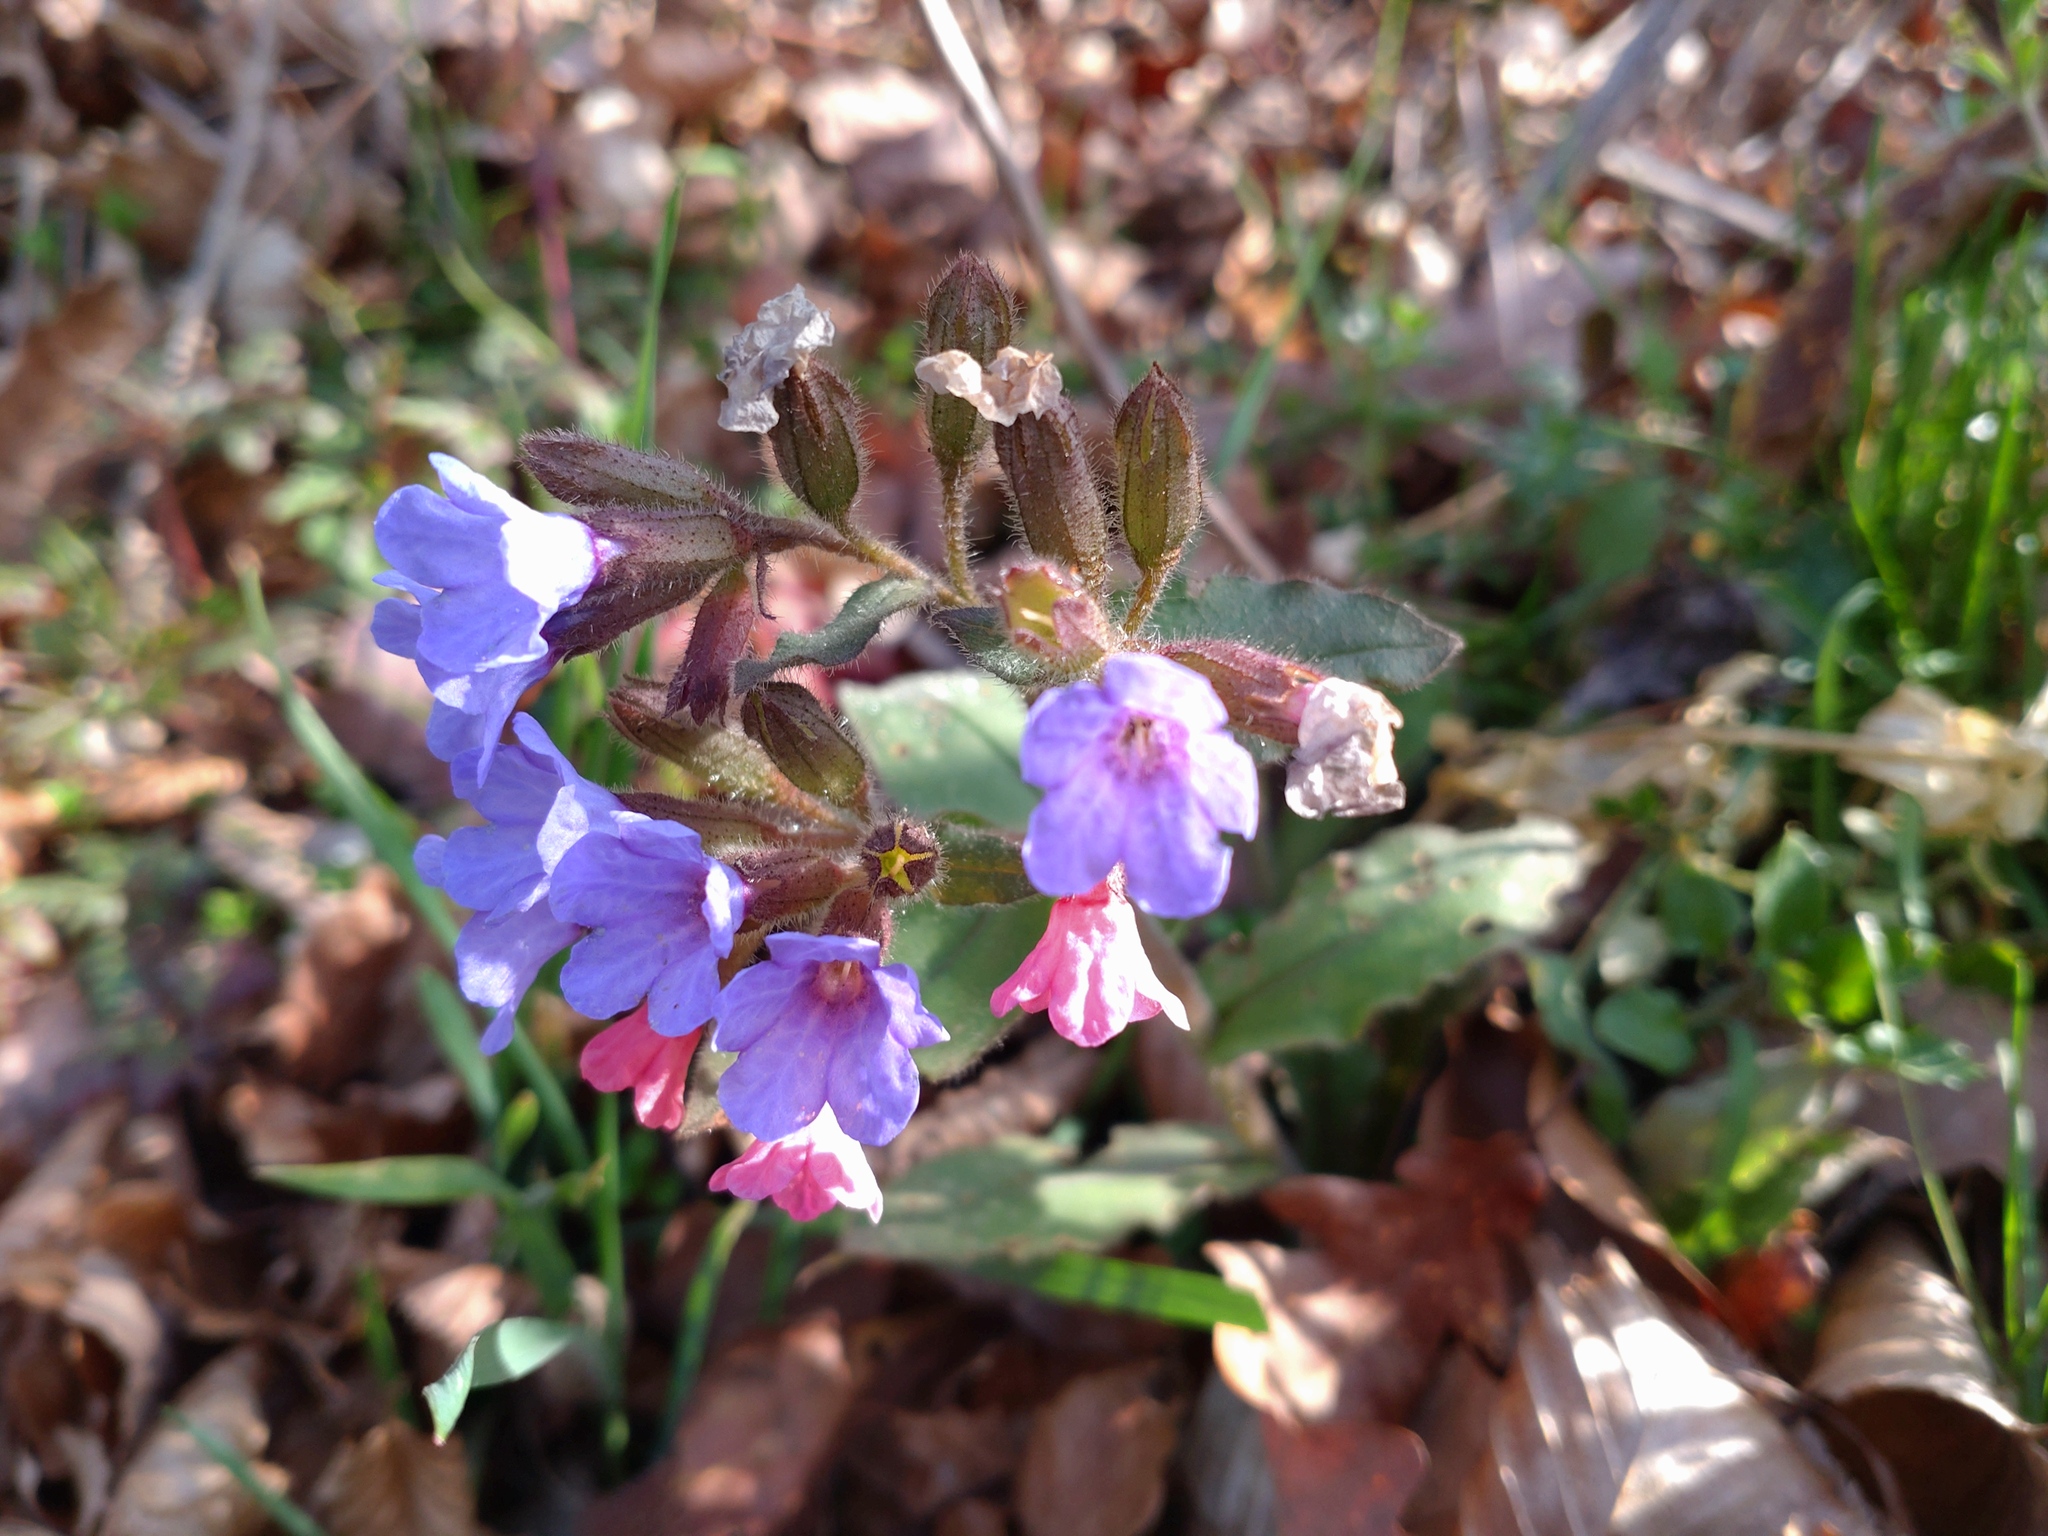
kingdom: Plantae
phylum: Tracheophyta
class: Magnoliopsida
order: Boraginales
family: Boraginaceae
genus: Pulmonaria
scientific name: Pulmonaria officinalis
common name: Lungwort
